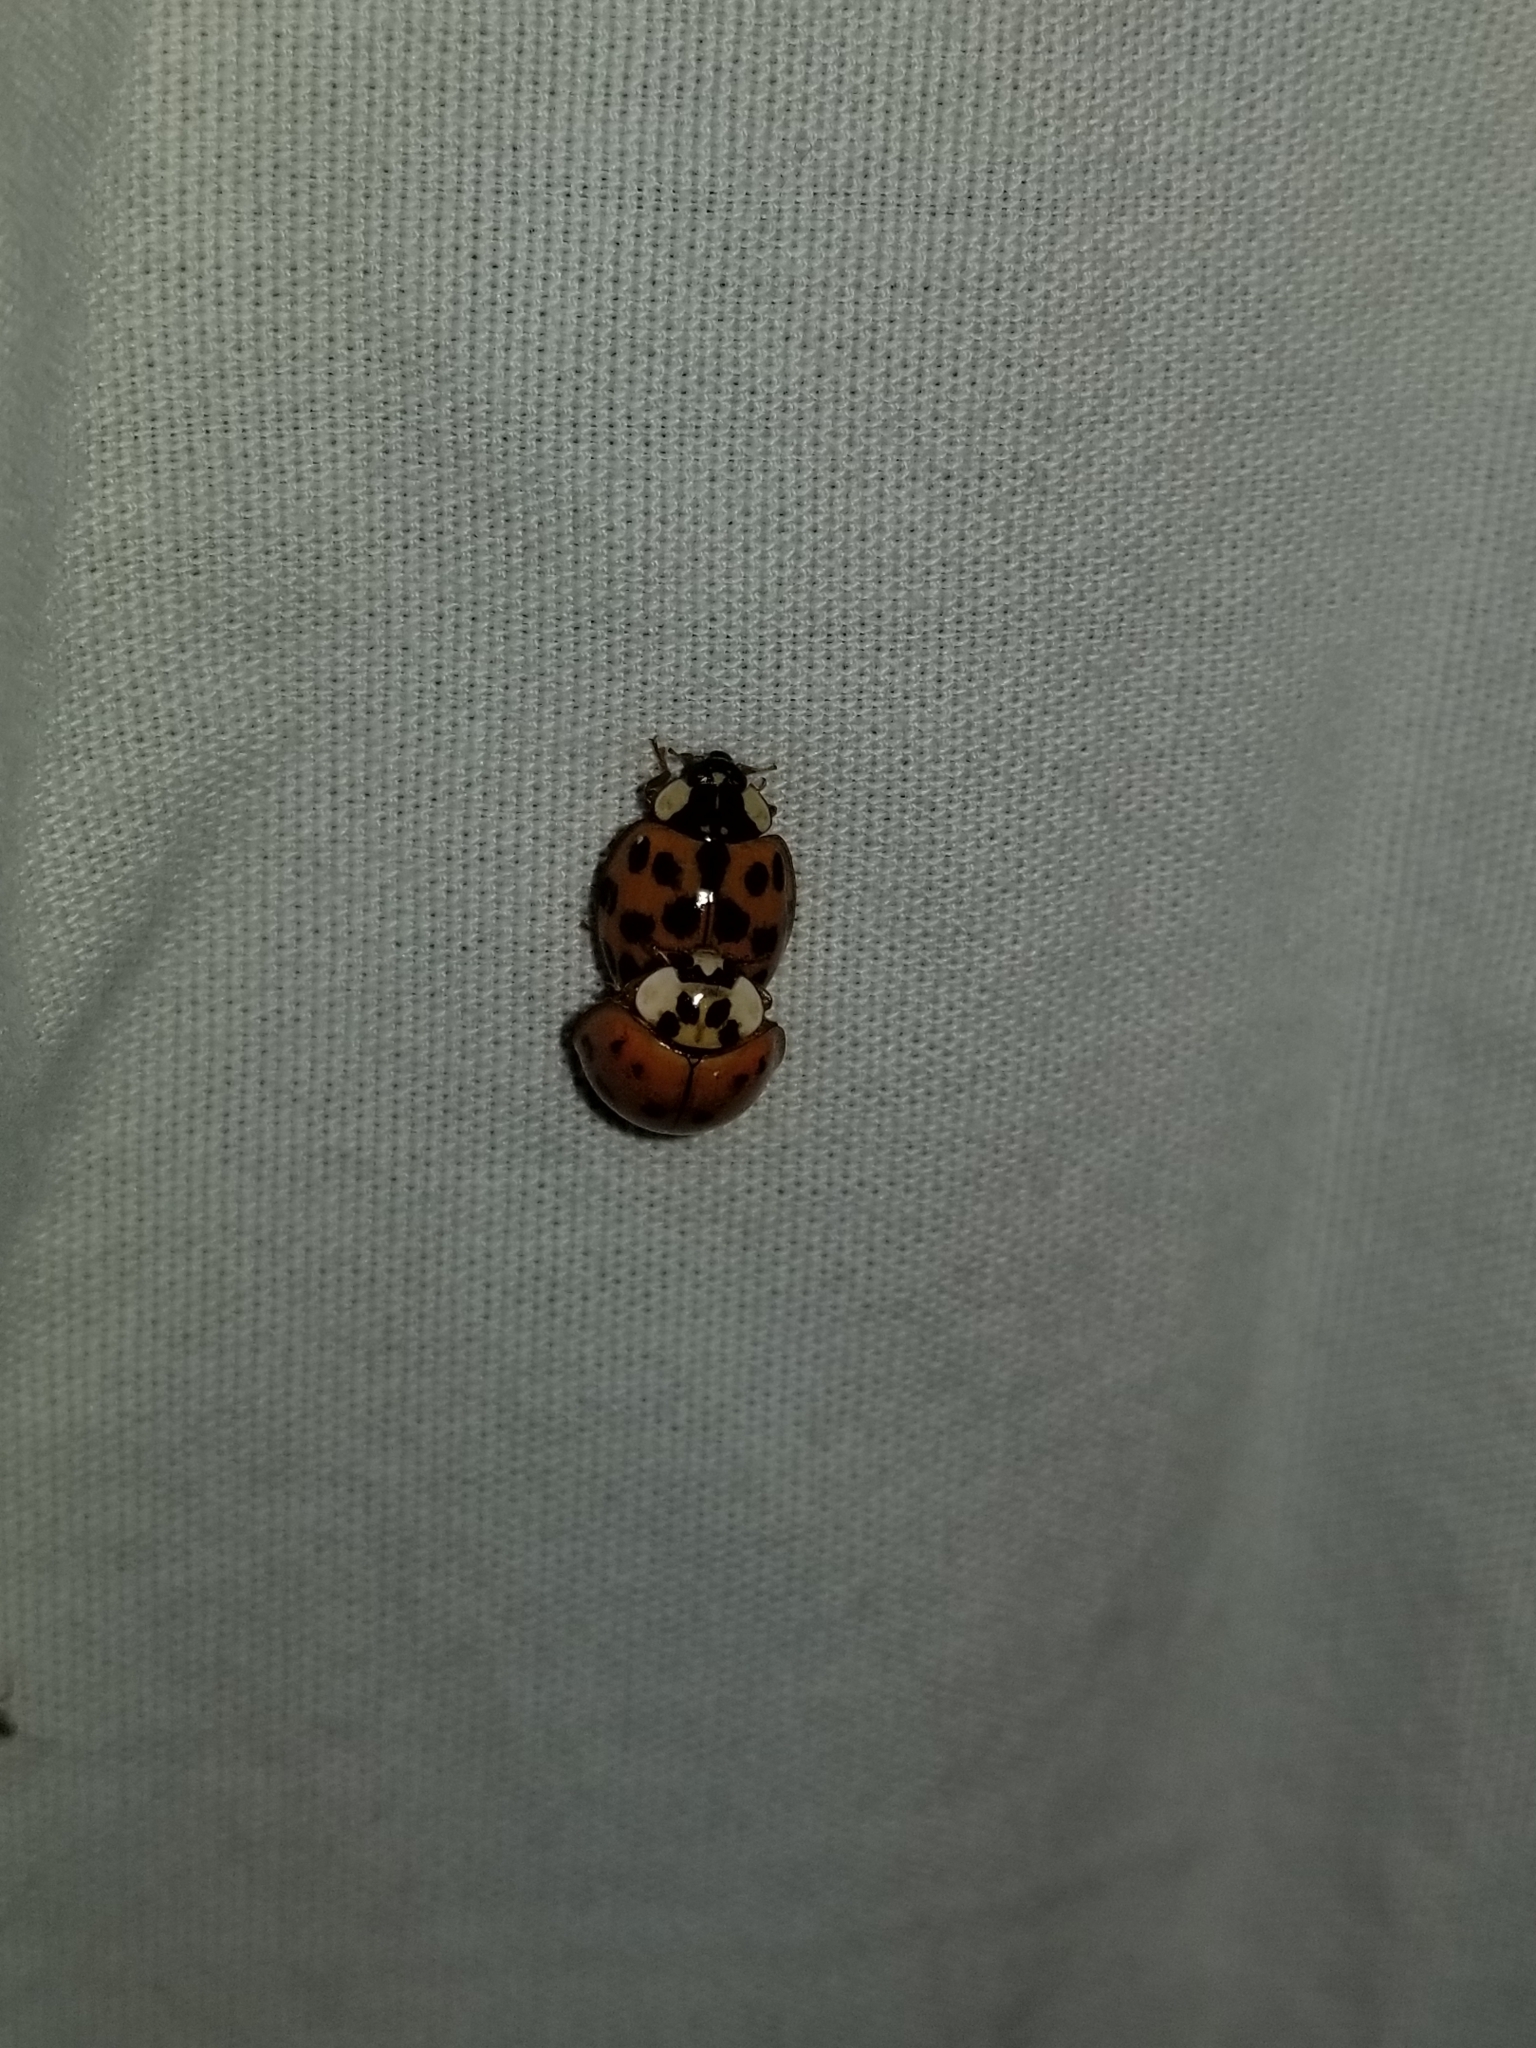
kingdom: Animalia
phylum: Arthropoda
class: Insecta
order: Coleoptera
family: Coccinellidae
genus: Harmonia
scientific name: Harmonia axyridis
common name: Harlequin ladybird
